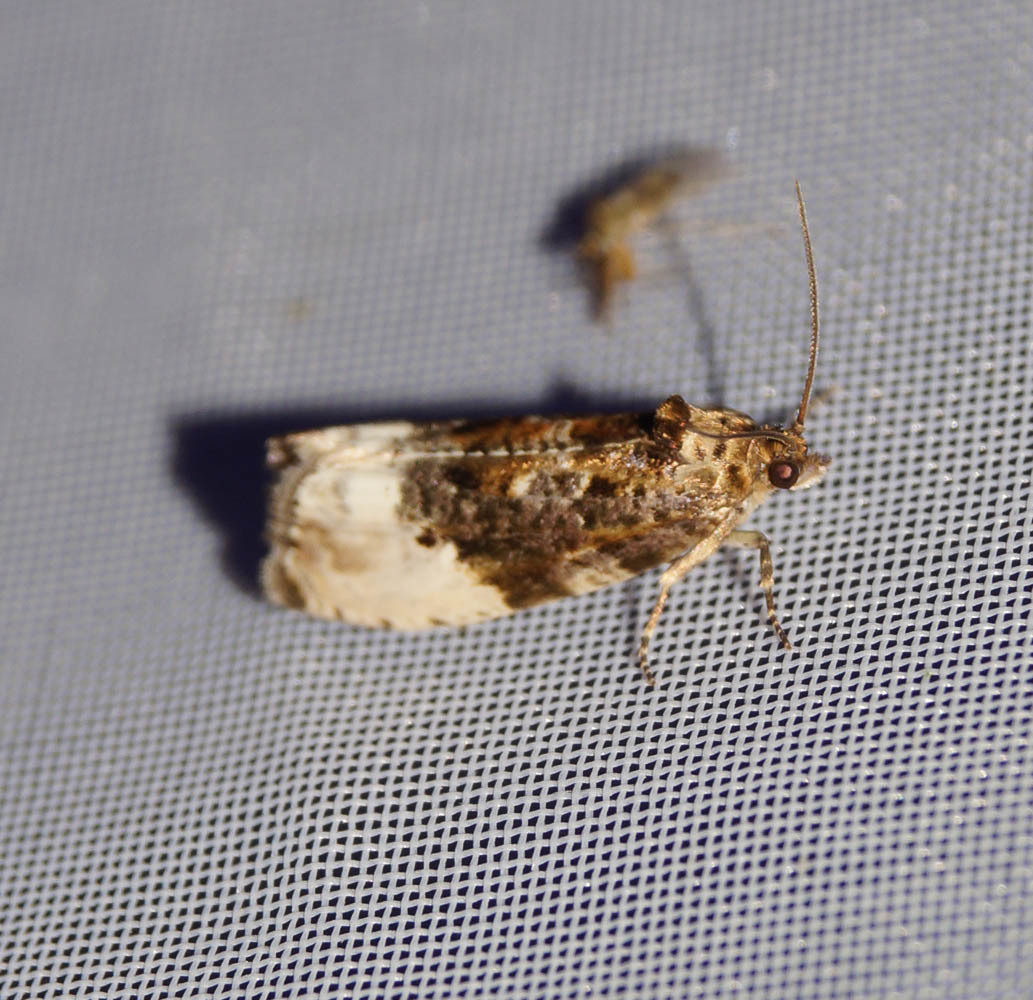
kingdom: Animalia
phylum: Arthropoda
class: Insecta
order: Lepidoptera
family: Tortricidae
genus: Hedya
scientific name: Hedya nubiferana
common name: Marbled orchard tortrix
